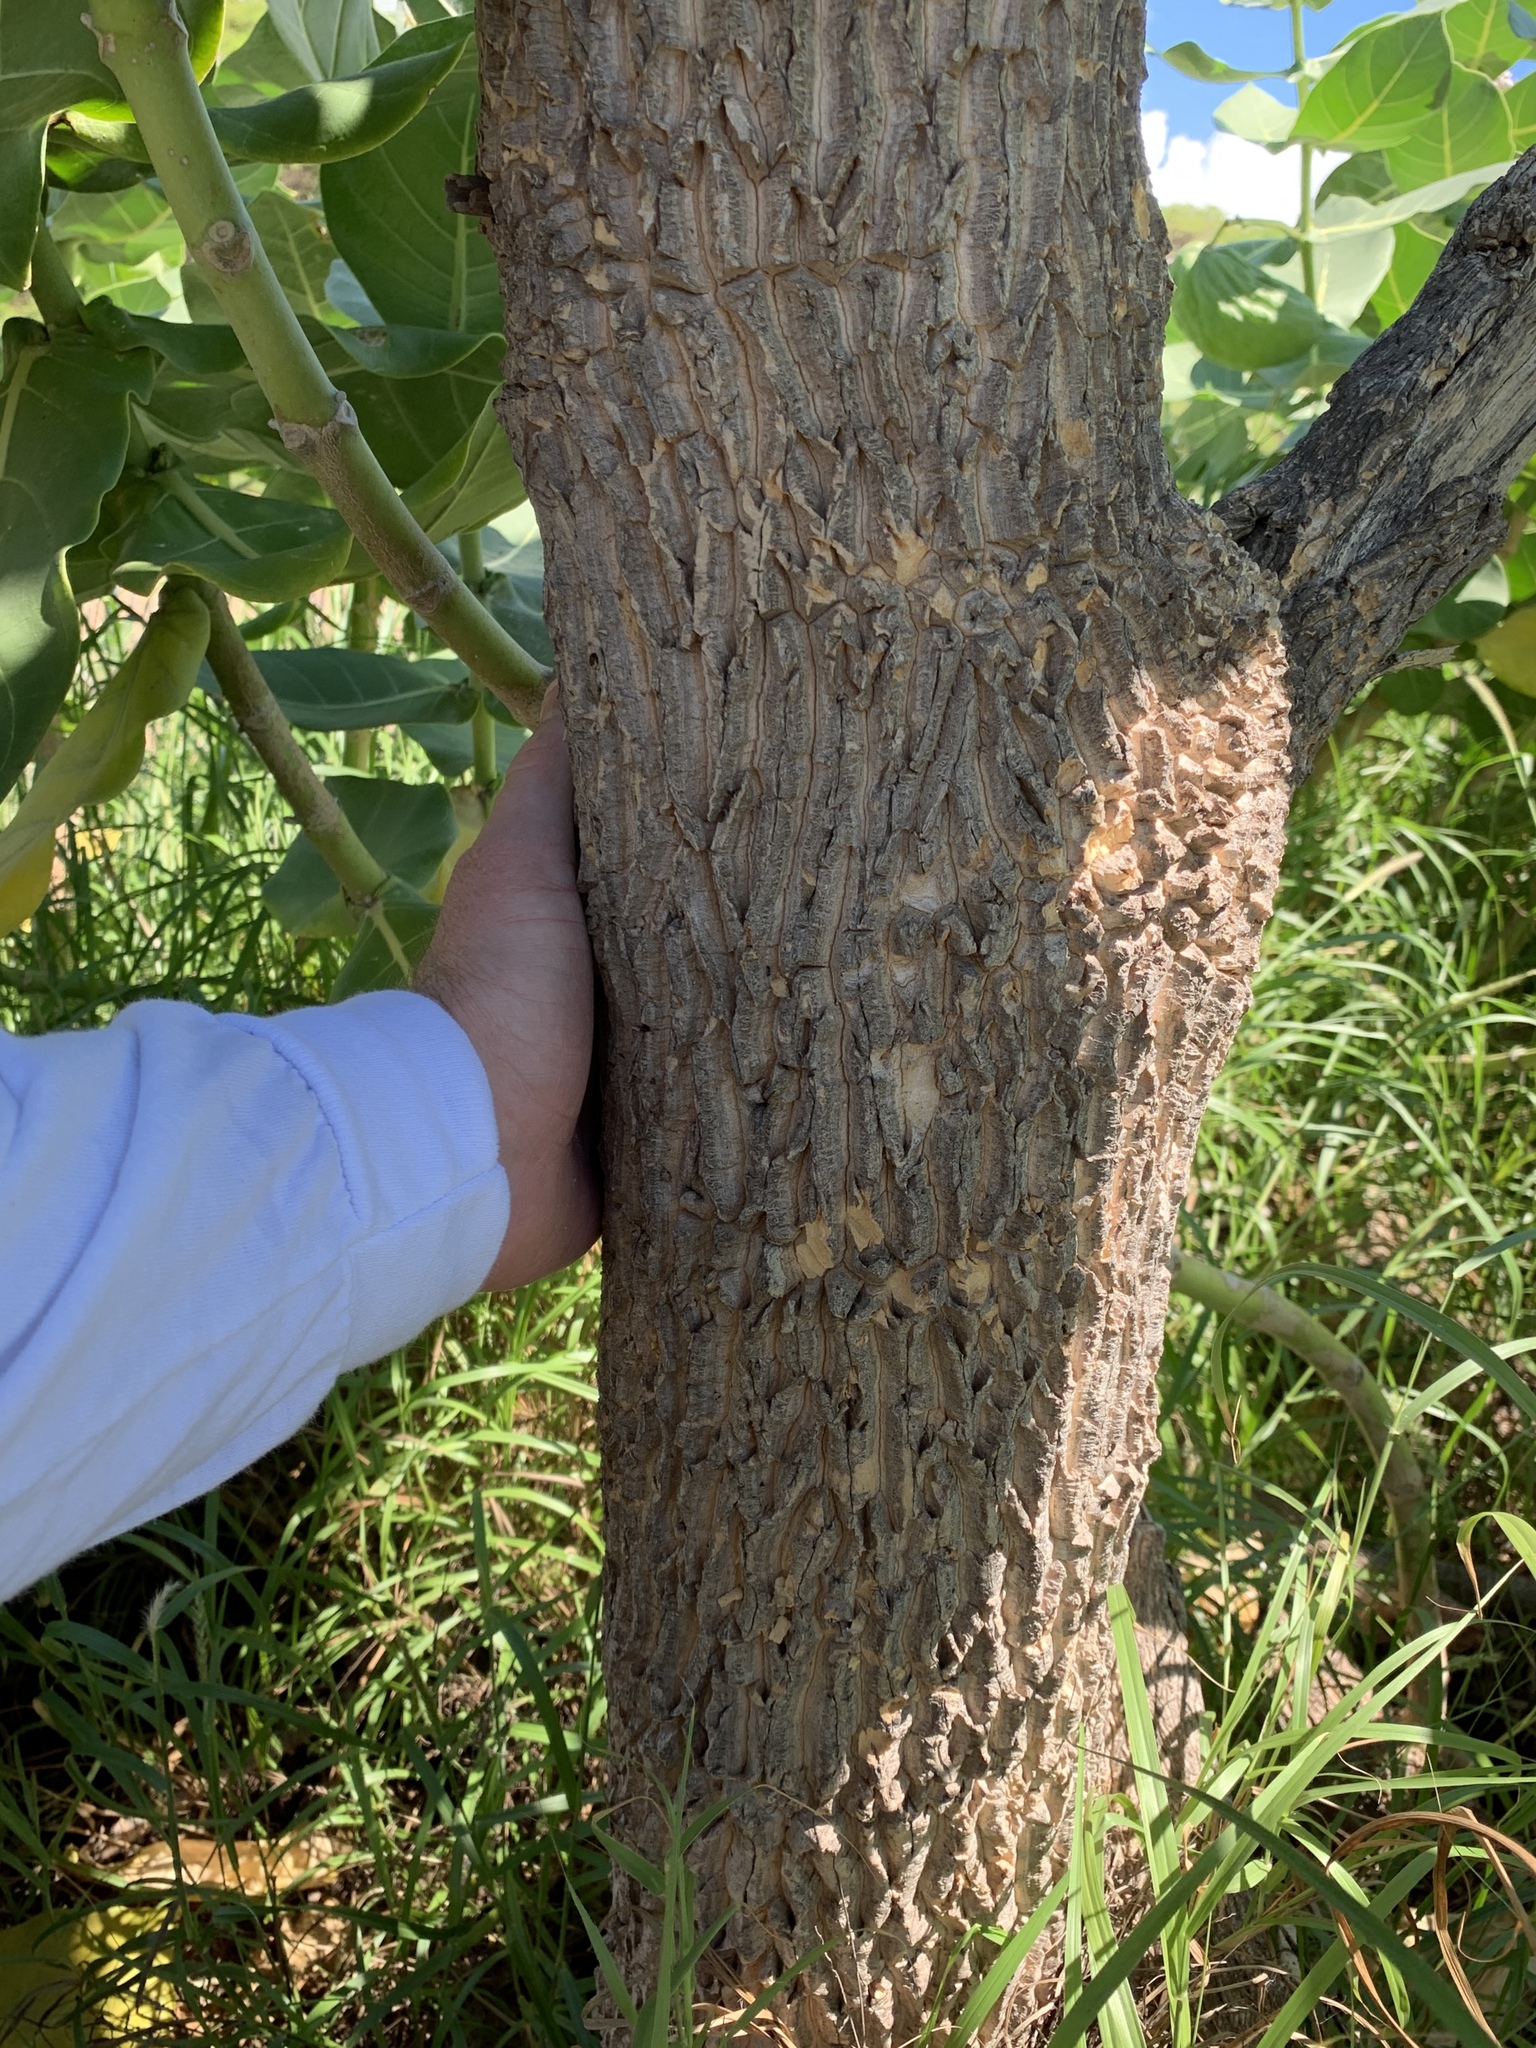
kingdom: Plantae
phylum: Tracheophyta
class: Magnoliopsida
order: Gentianales
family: Apocynaceae
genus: Calotropis
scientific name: Calotropis procera
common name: Roostertree
